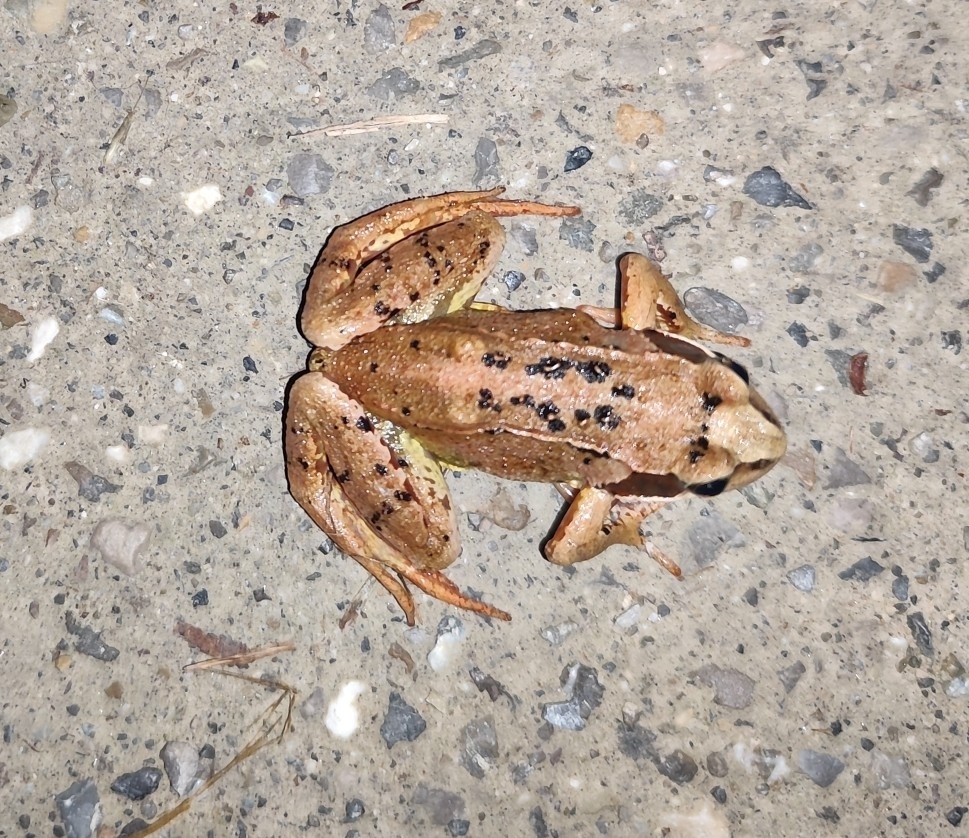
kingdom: Animalia
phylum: Chordata
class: Amphibia
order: Anura
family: Ranidae
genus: Rana
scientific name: Rana temporaria
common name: Common frog
